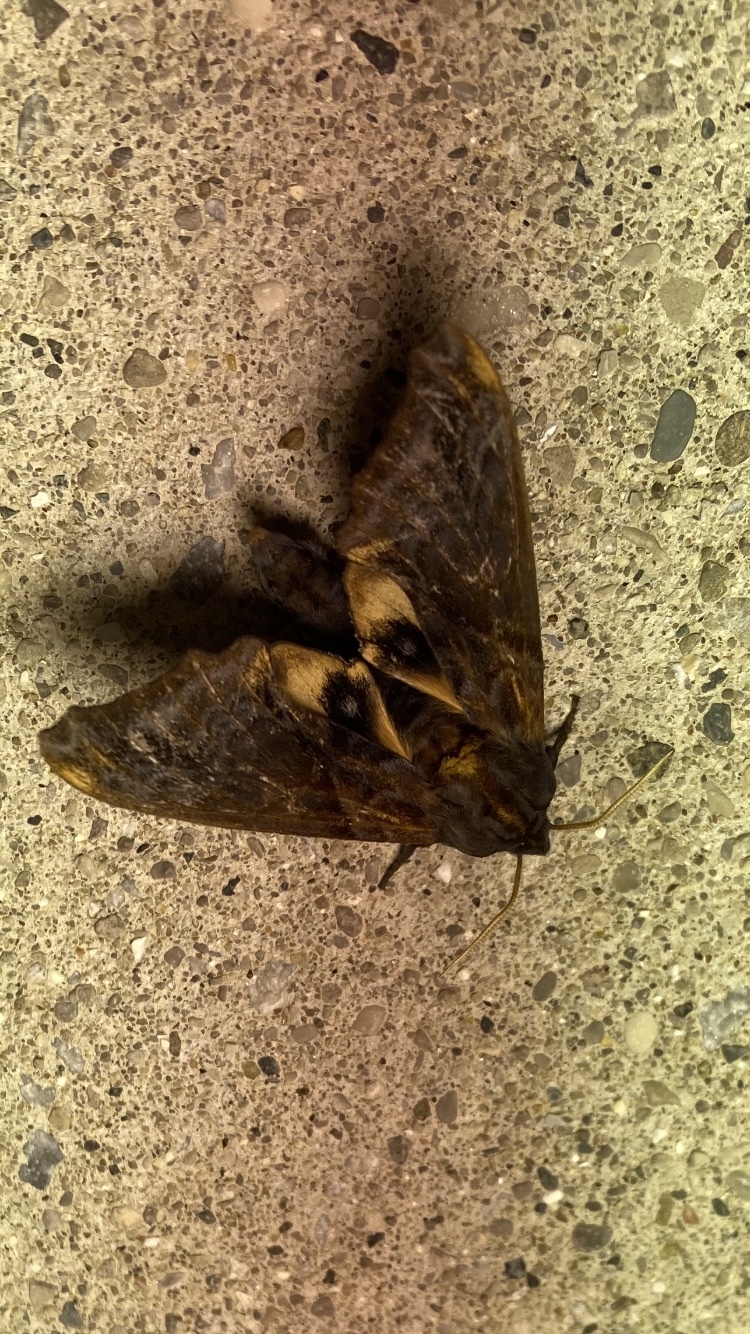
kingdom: Animalia
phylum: Arthropoda
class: Insecta
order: Lepidoptera
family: Sphingidae
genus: Paonias
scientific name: Paonias myops
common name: Small-eyed sphinx
